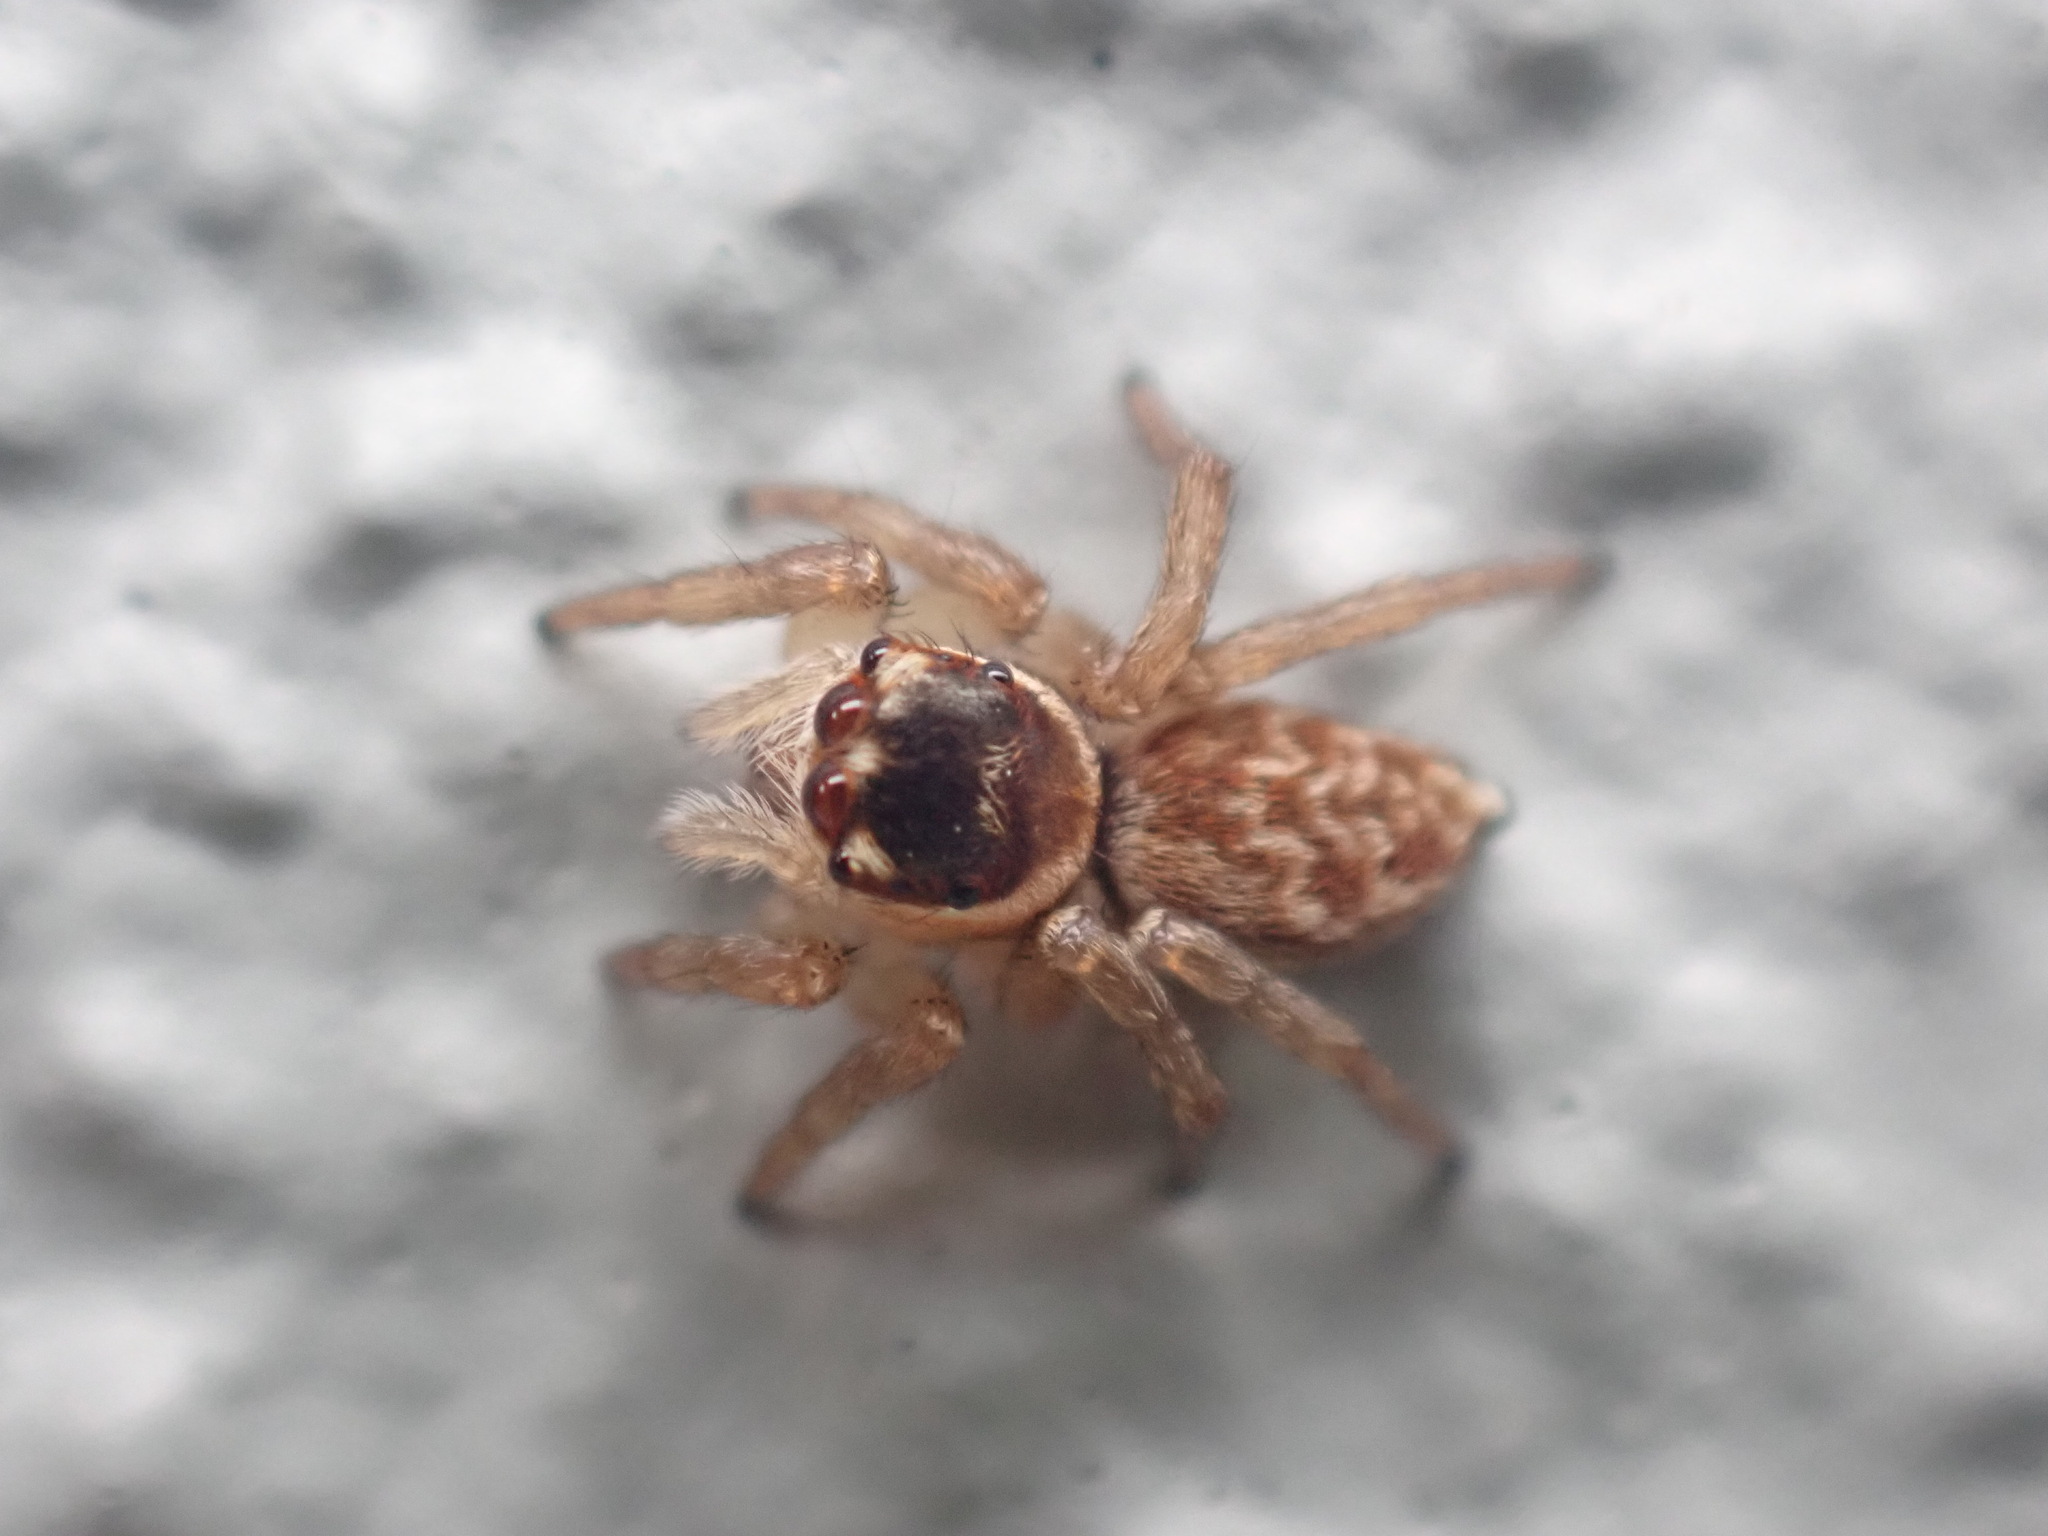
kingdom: Animalia
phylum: Arthropoda
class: Arachnida
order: Araneae
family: Salticidae
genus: Maratus
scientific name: Maratus griseus
